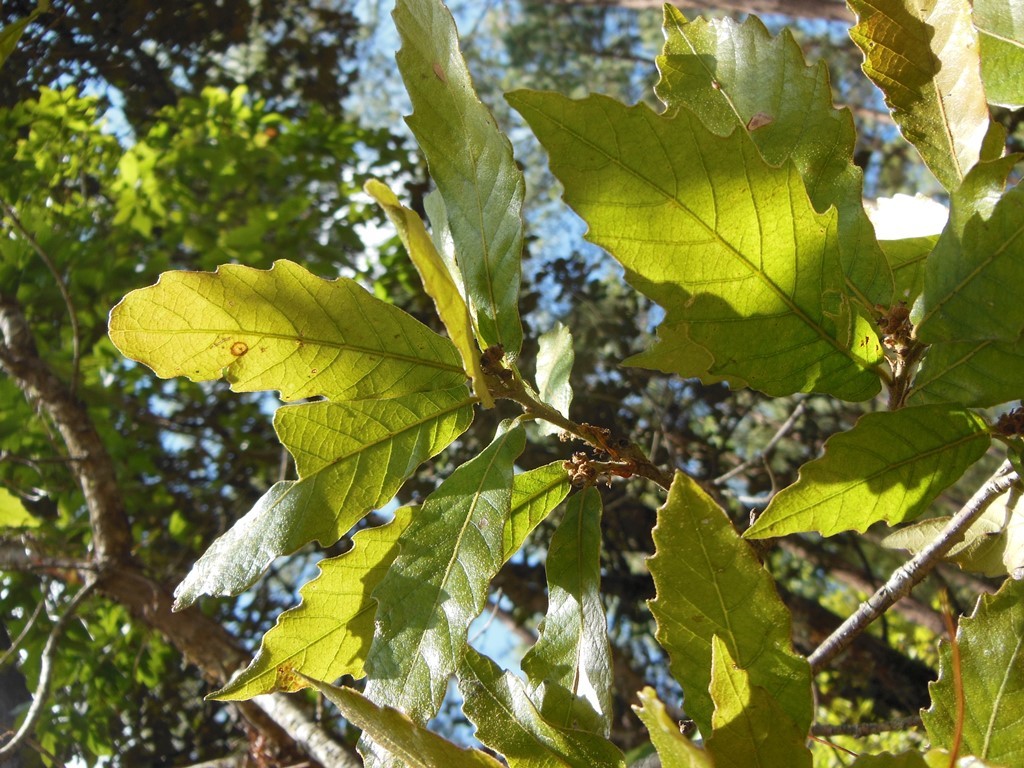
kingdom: Plantae
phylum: Tracheophyta
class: Magnoliopsida
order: Fagales
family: Fagaceae
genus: Quercus
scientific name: Quercus segoviensis
